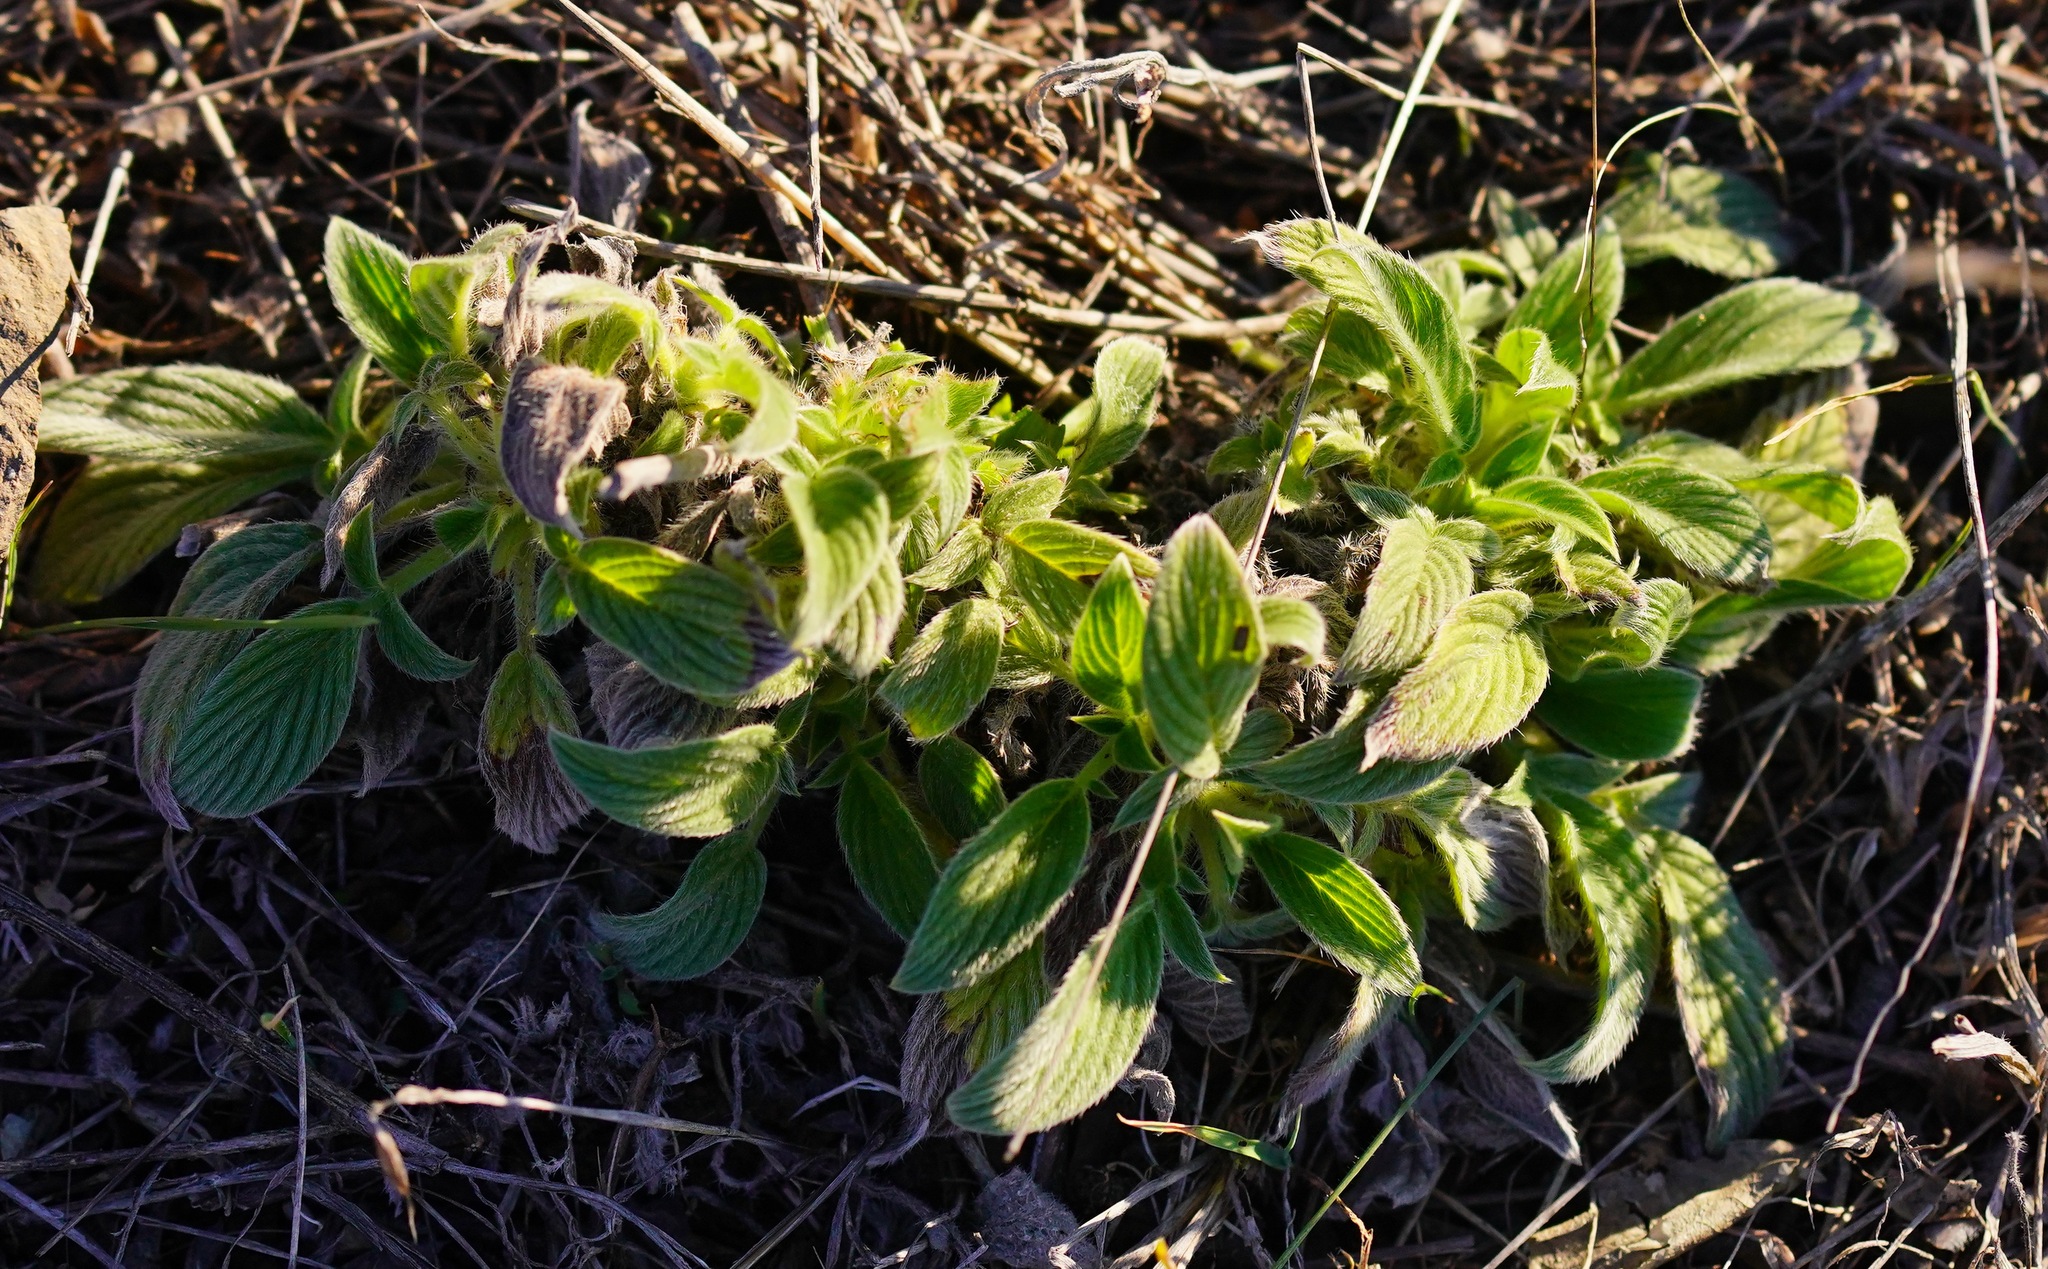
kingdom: Plantae
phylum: Tracheophyta
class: Magnoliopsida
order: Boraginales
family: Hydrophyllaceae
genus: Phacelia
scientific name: Phacelia californica
